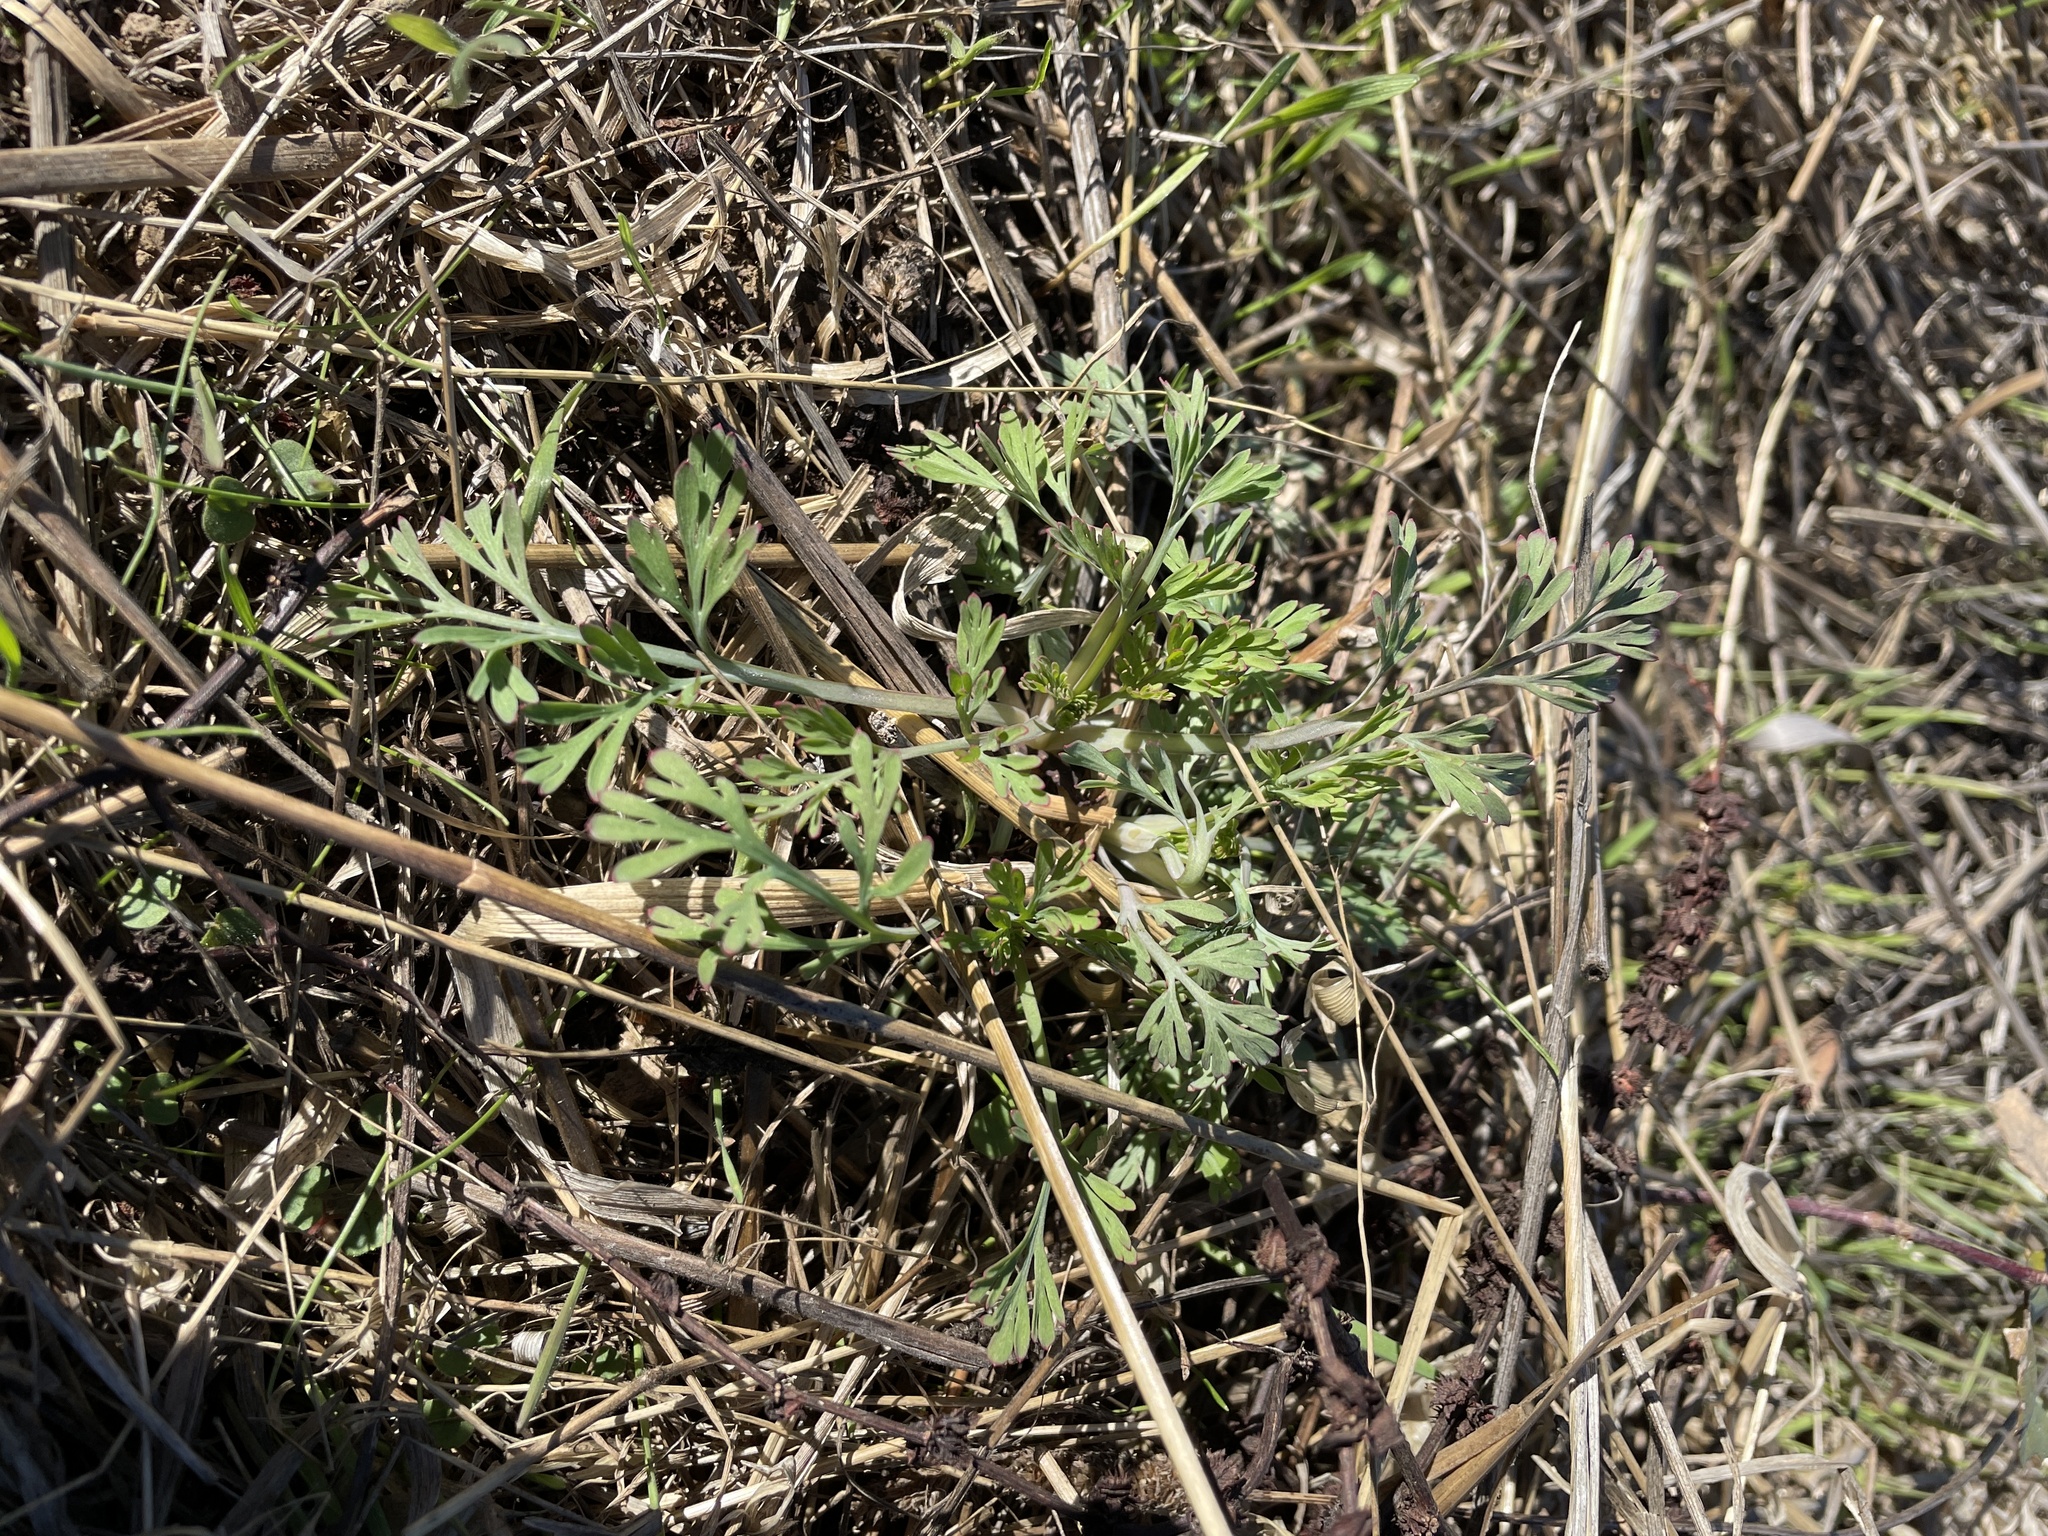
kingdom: Plantae
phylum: Tracheophyta
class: Magnoliopsida
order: Ranunculales
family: Papaveraceae
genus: Eschscholzia
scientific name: Eschscholzia californica
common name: California poppy
